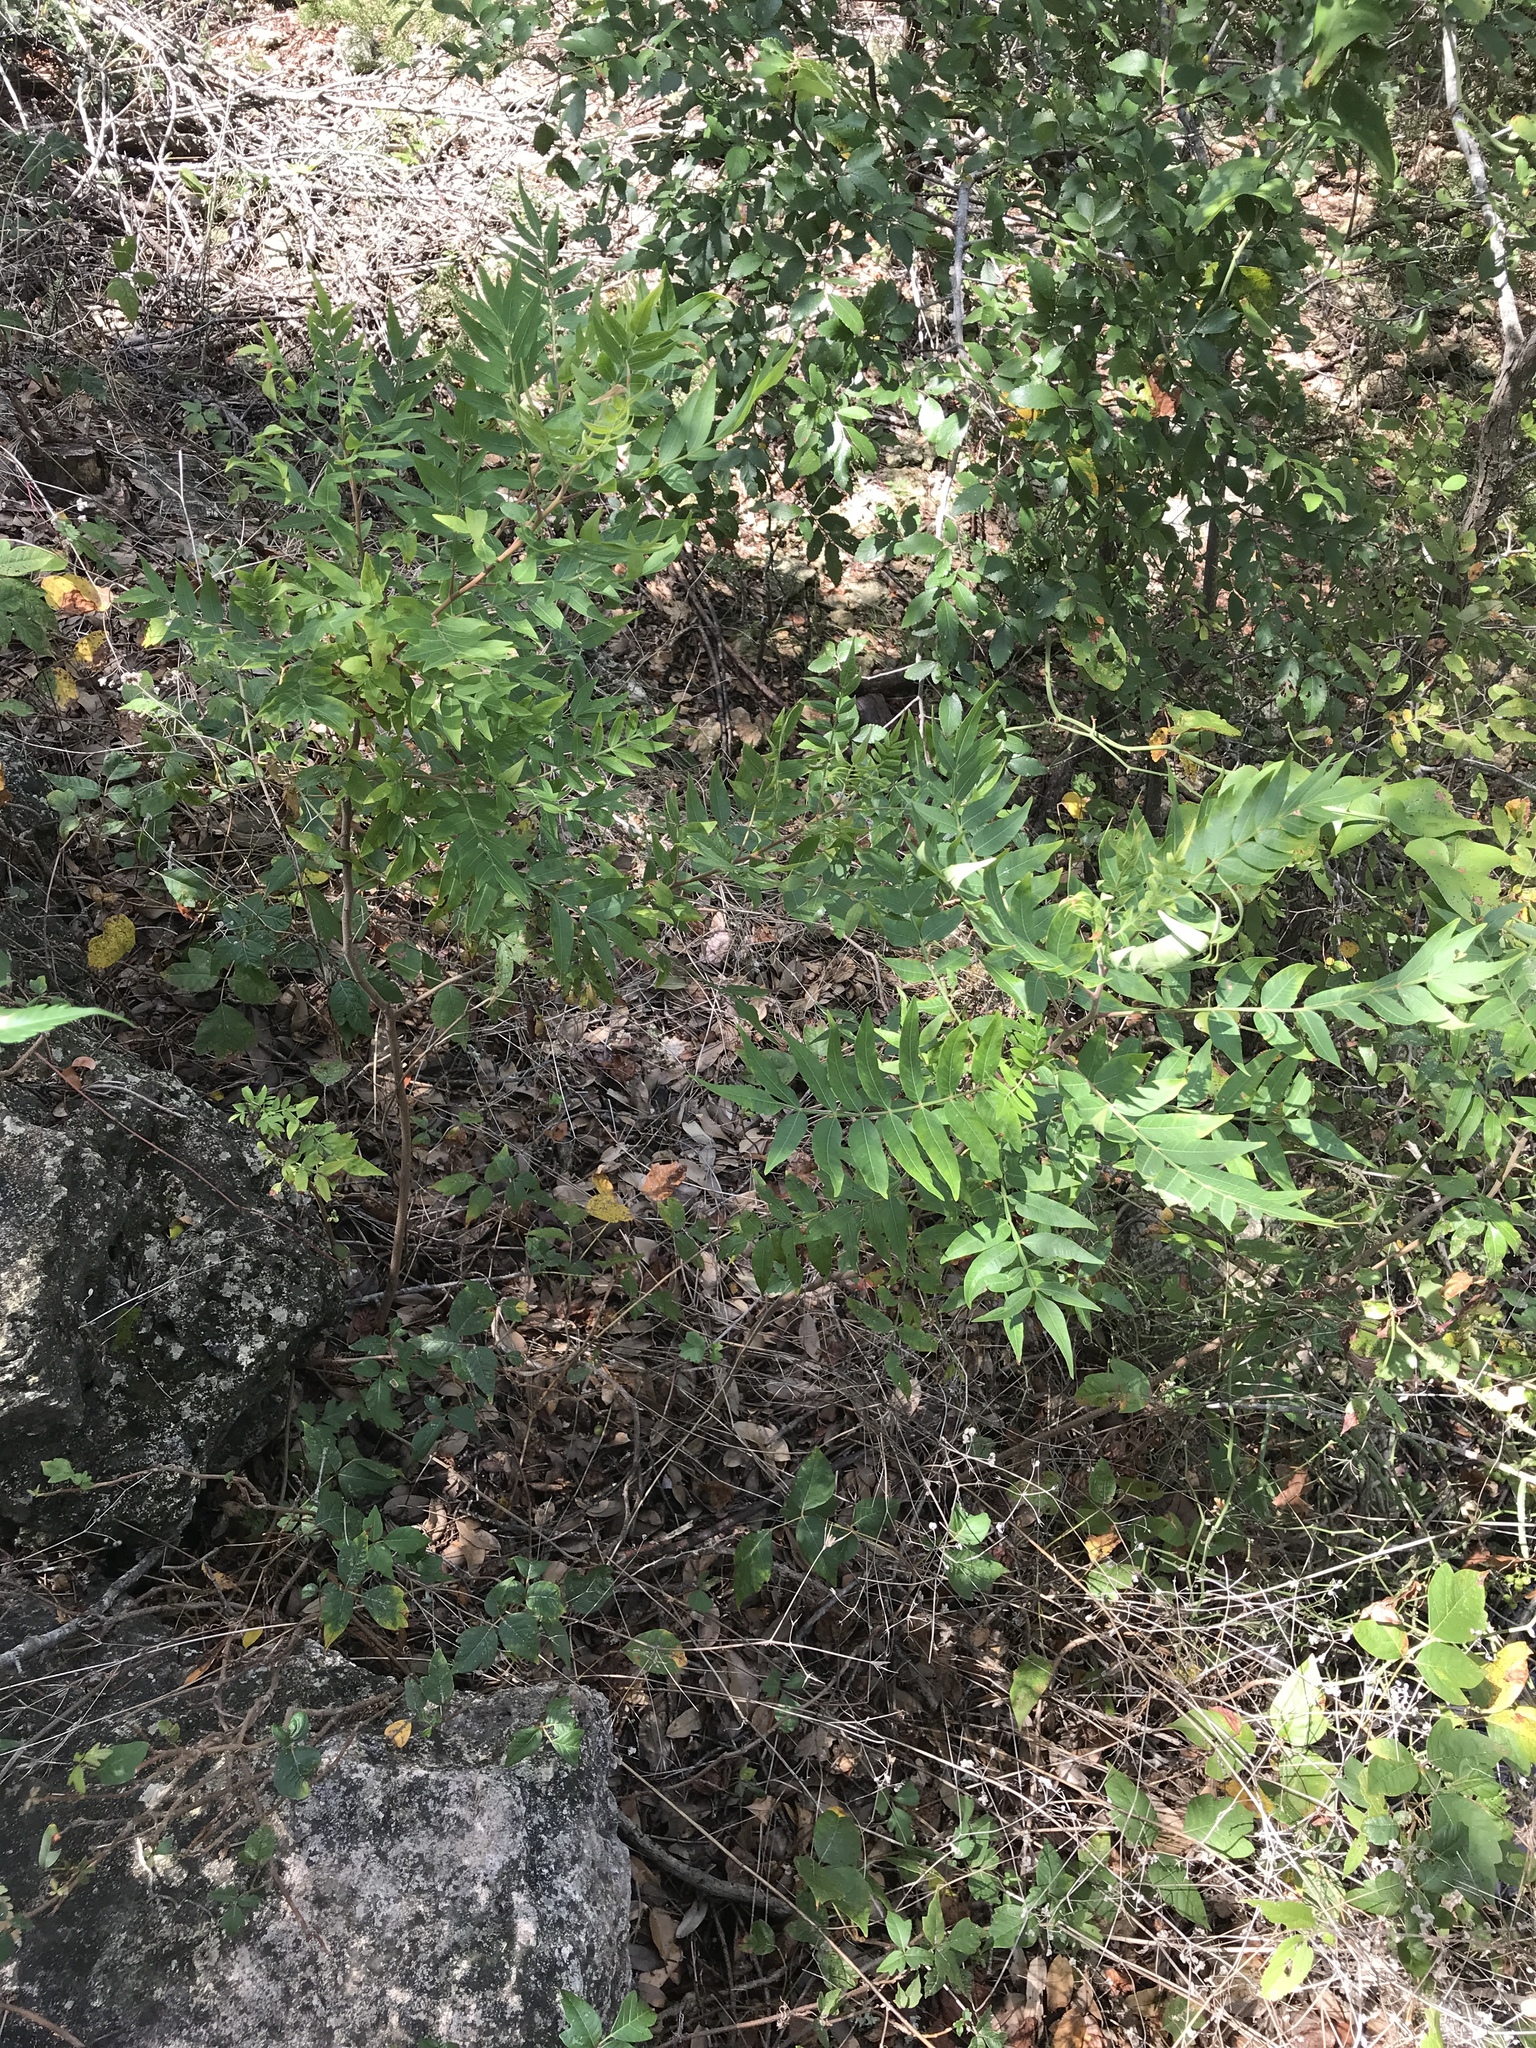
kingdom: Plantae
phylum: Tracheophyta
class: Magnoliopsida
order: Sapindales
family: Anacardiaceae
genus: Rhus
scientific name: Rhus lanceolata
